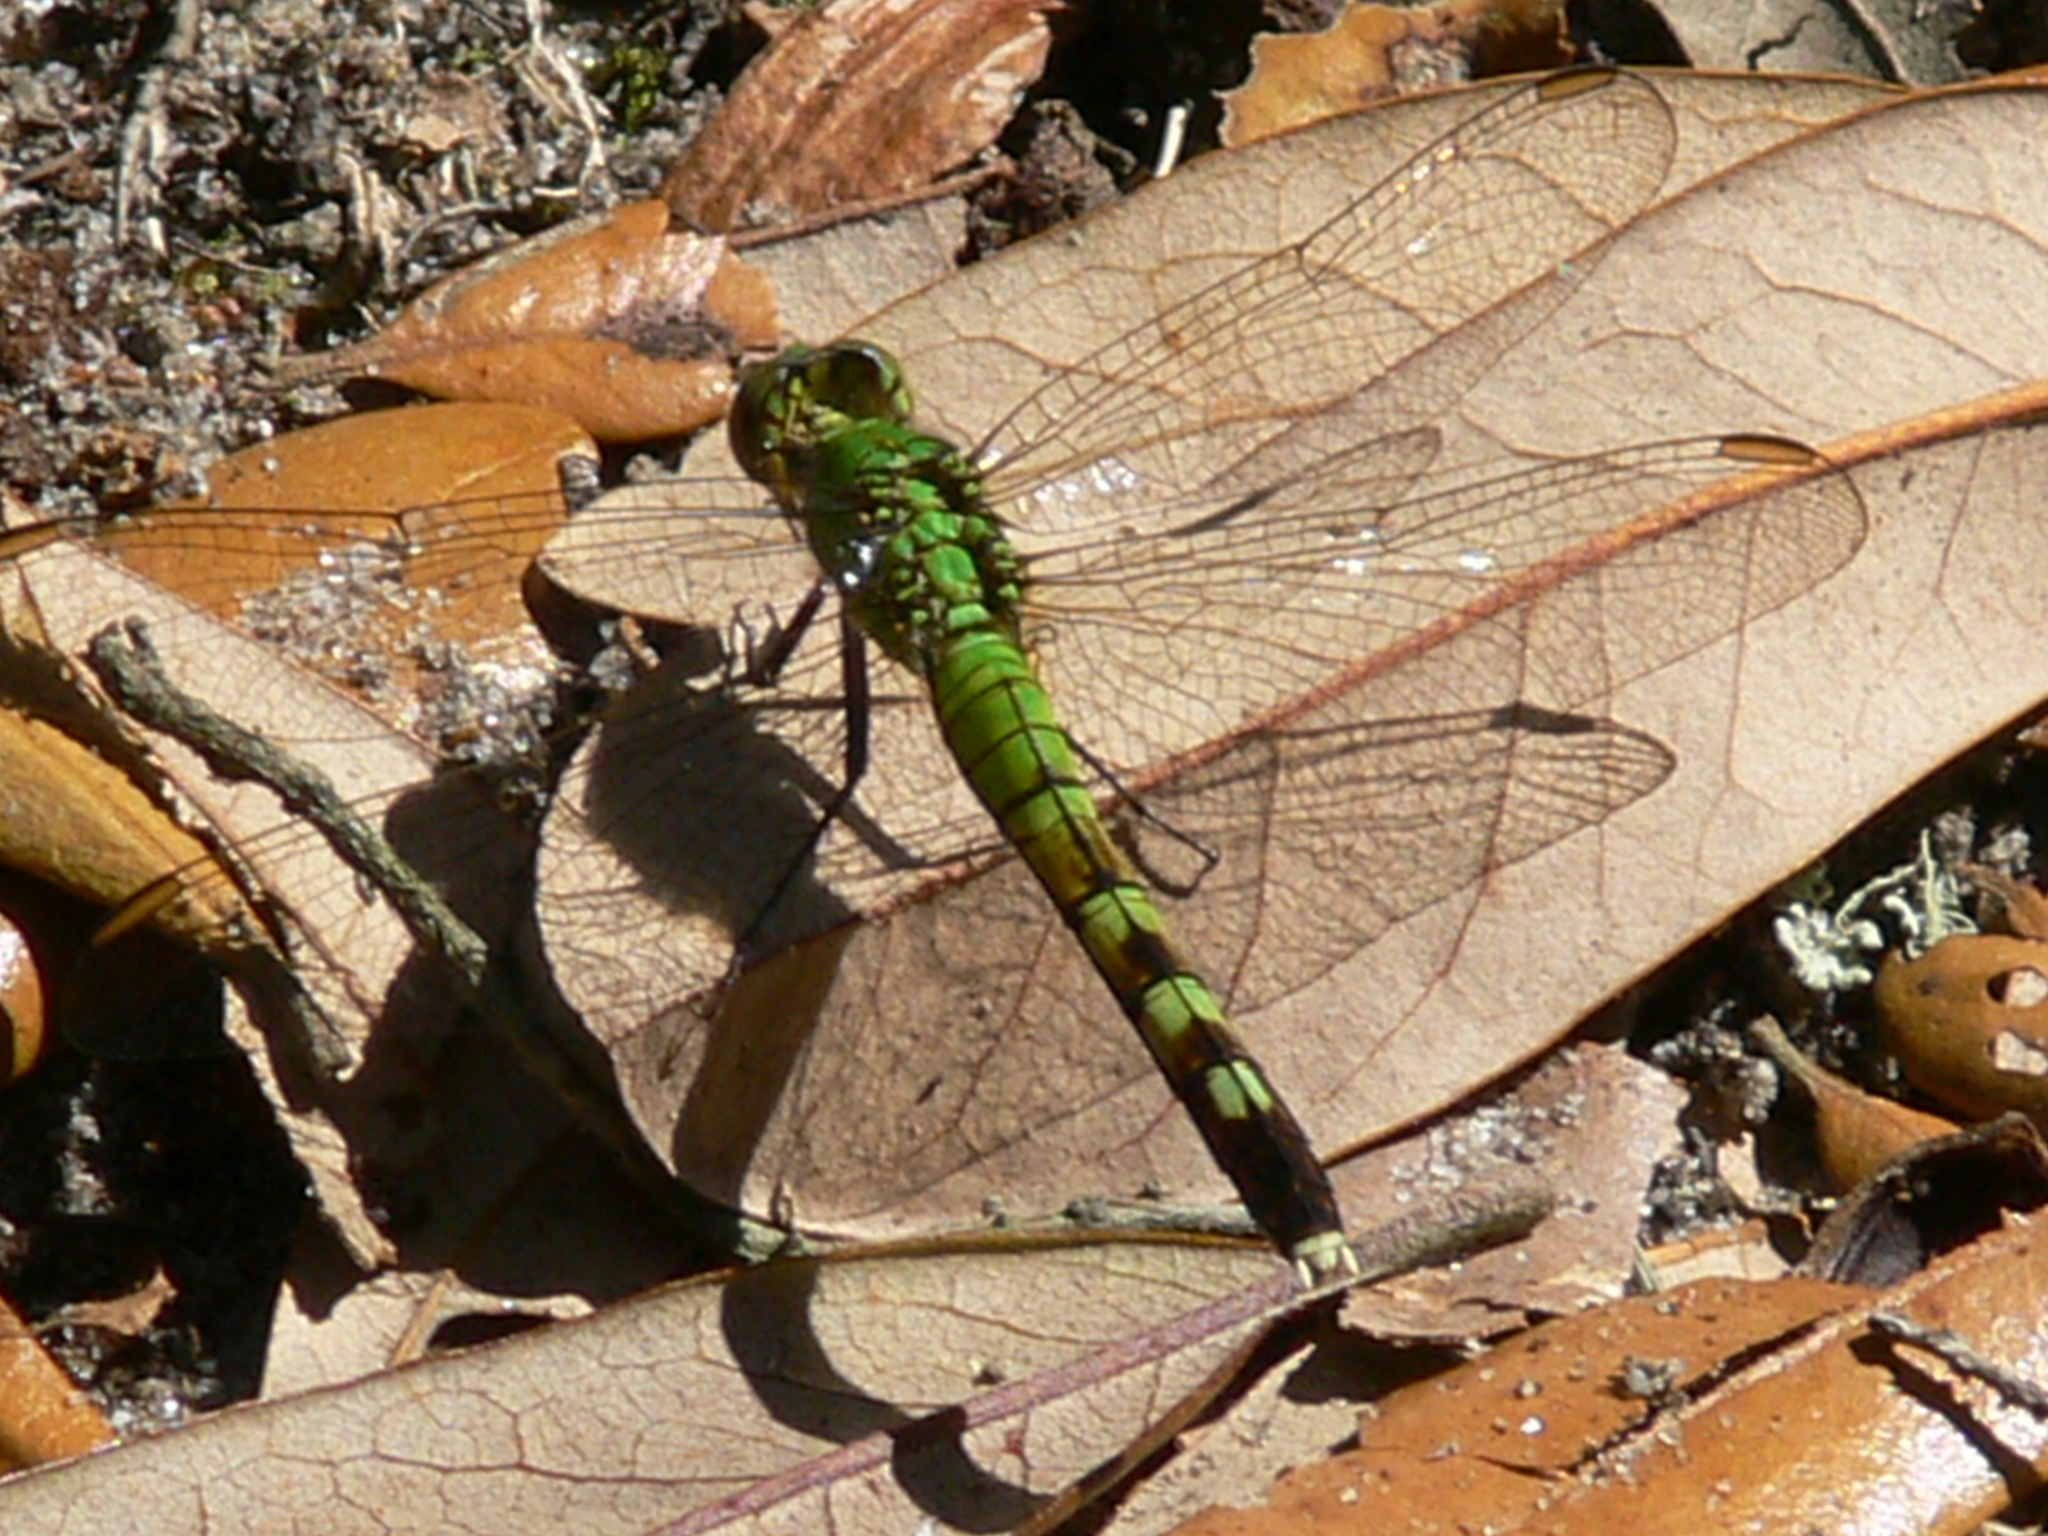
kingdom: Animalia
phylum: Arthropoda
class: Insecta
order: Odonata
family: Libellulidae
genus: Erythemis
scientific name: Erythemis simplicicollis
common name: Eastern pondhawk
